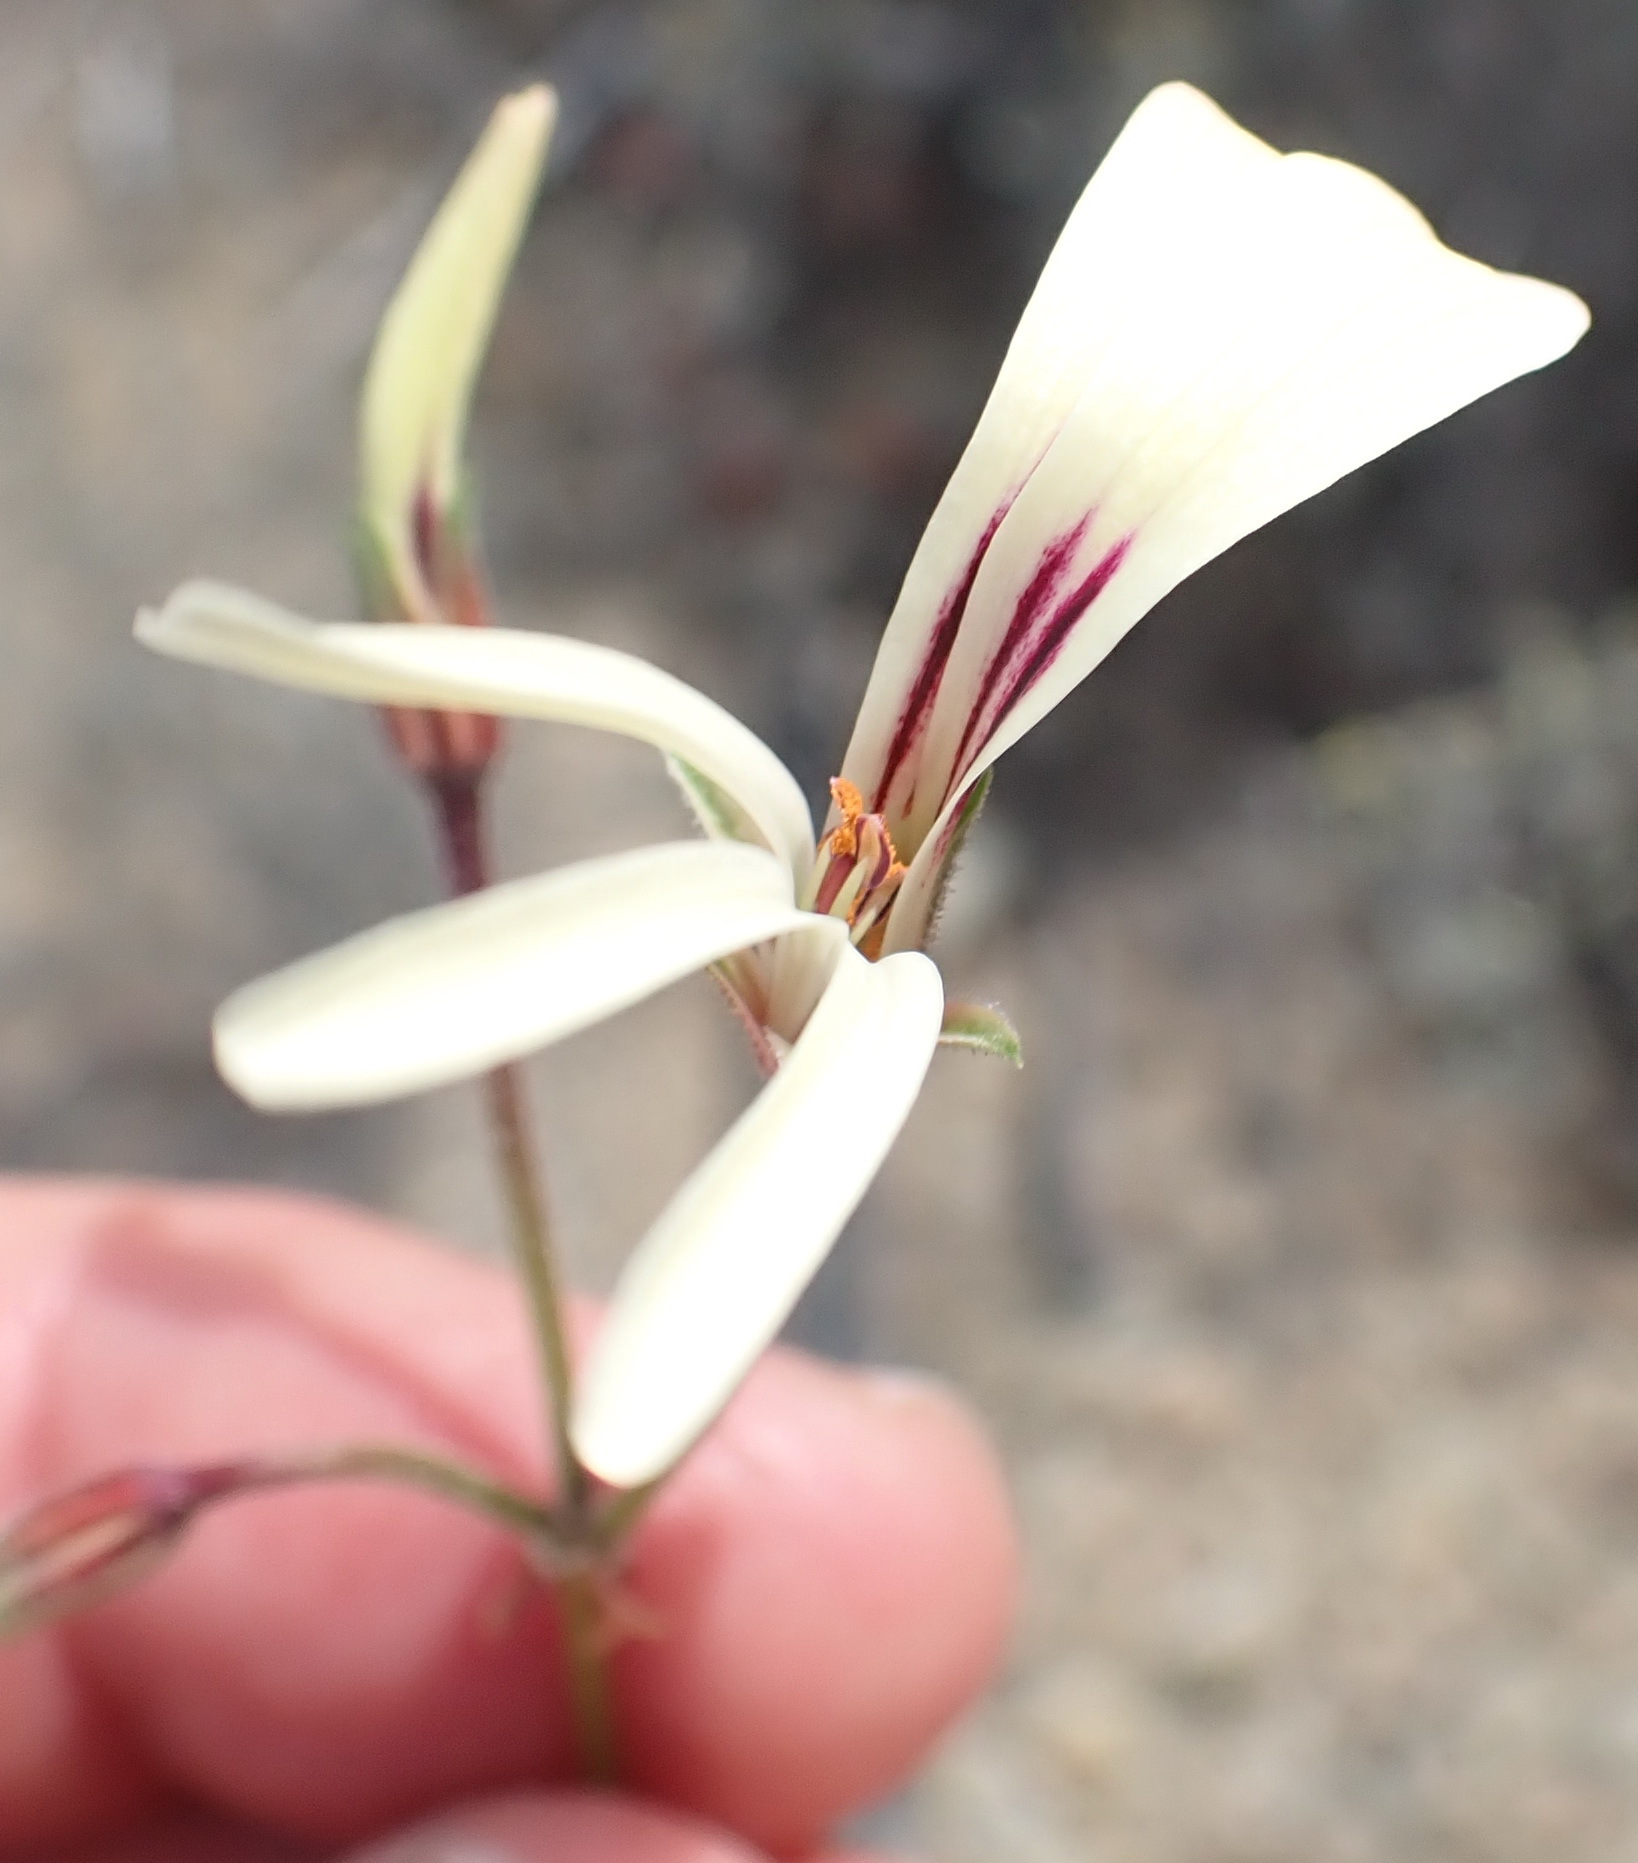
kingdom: Plantae
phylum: Tracheophyta
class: Magnoliopsida
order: Geraniales
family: Geraniaceae
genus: Pelargonium
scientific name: Pelargonium trifidum
